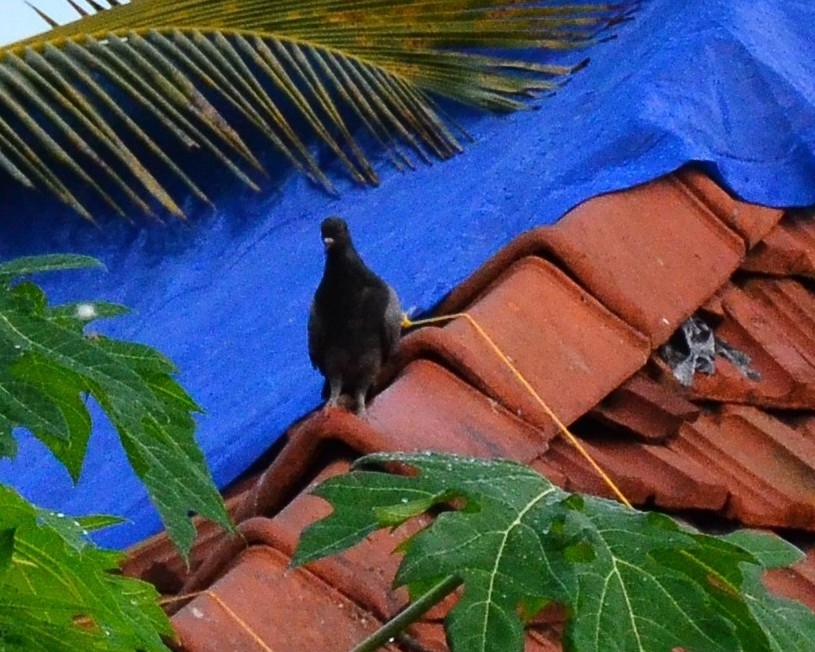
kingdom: Animalia
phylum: Chordata
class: Aves
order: Columbiformes
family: Columbidae
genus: Columba
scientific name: Columba livia
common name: Rock pigeon
